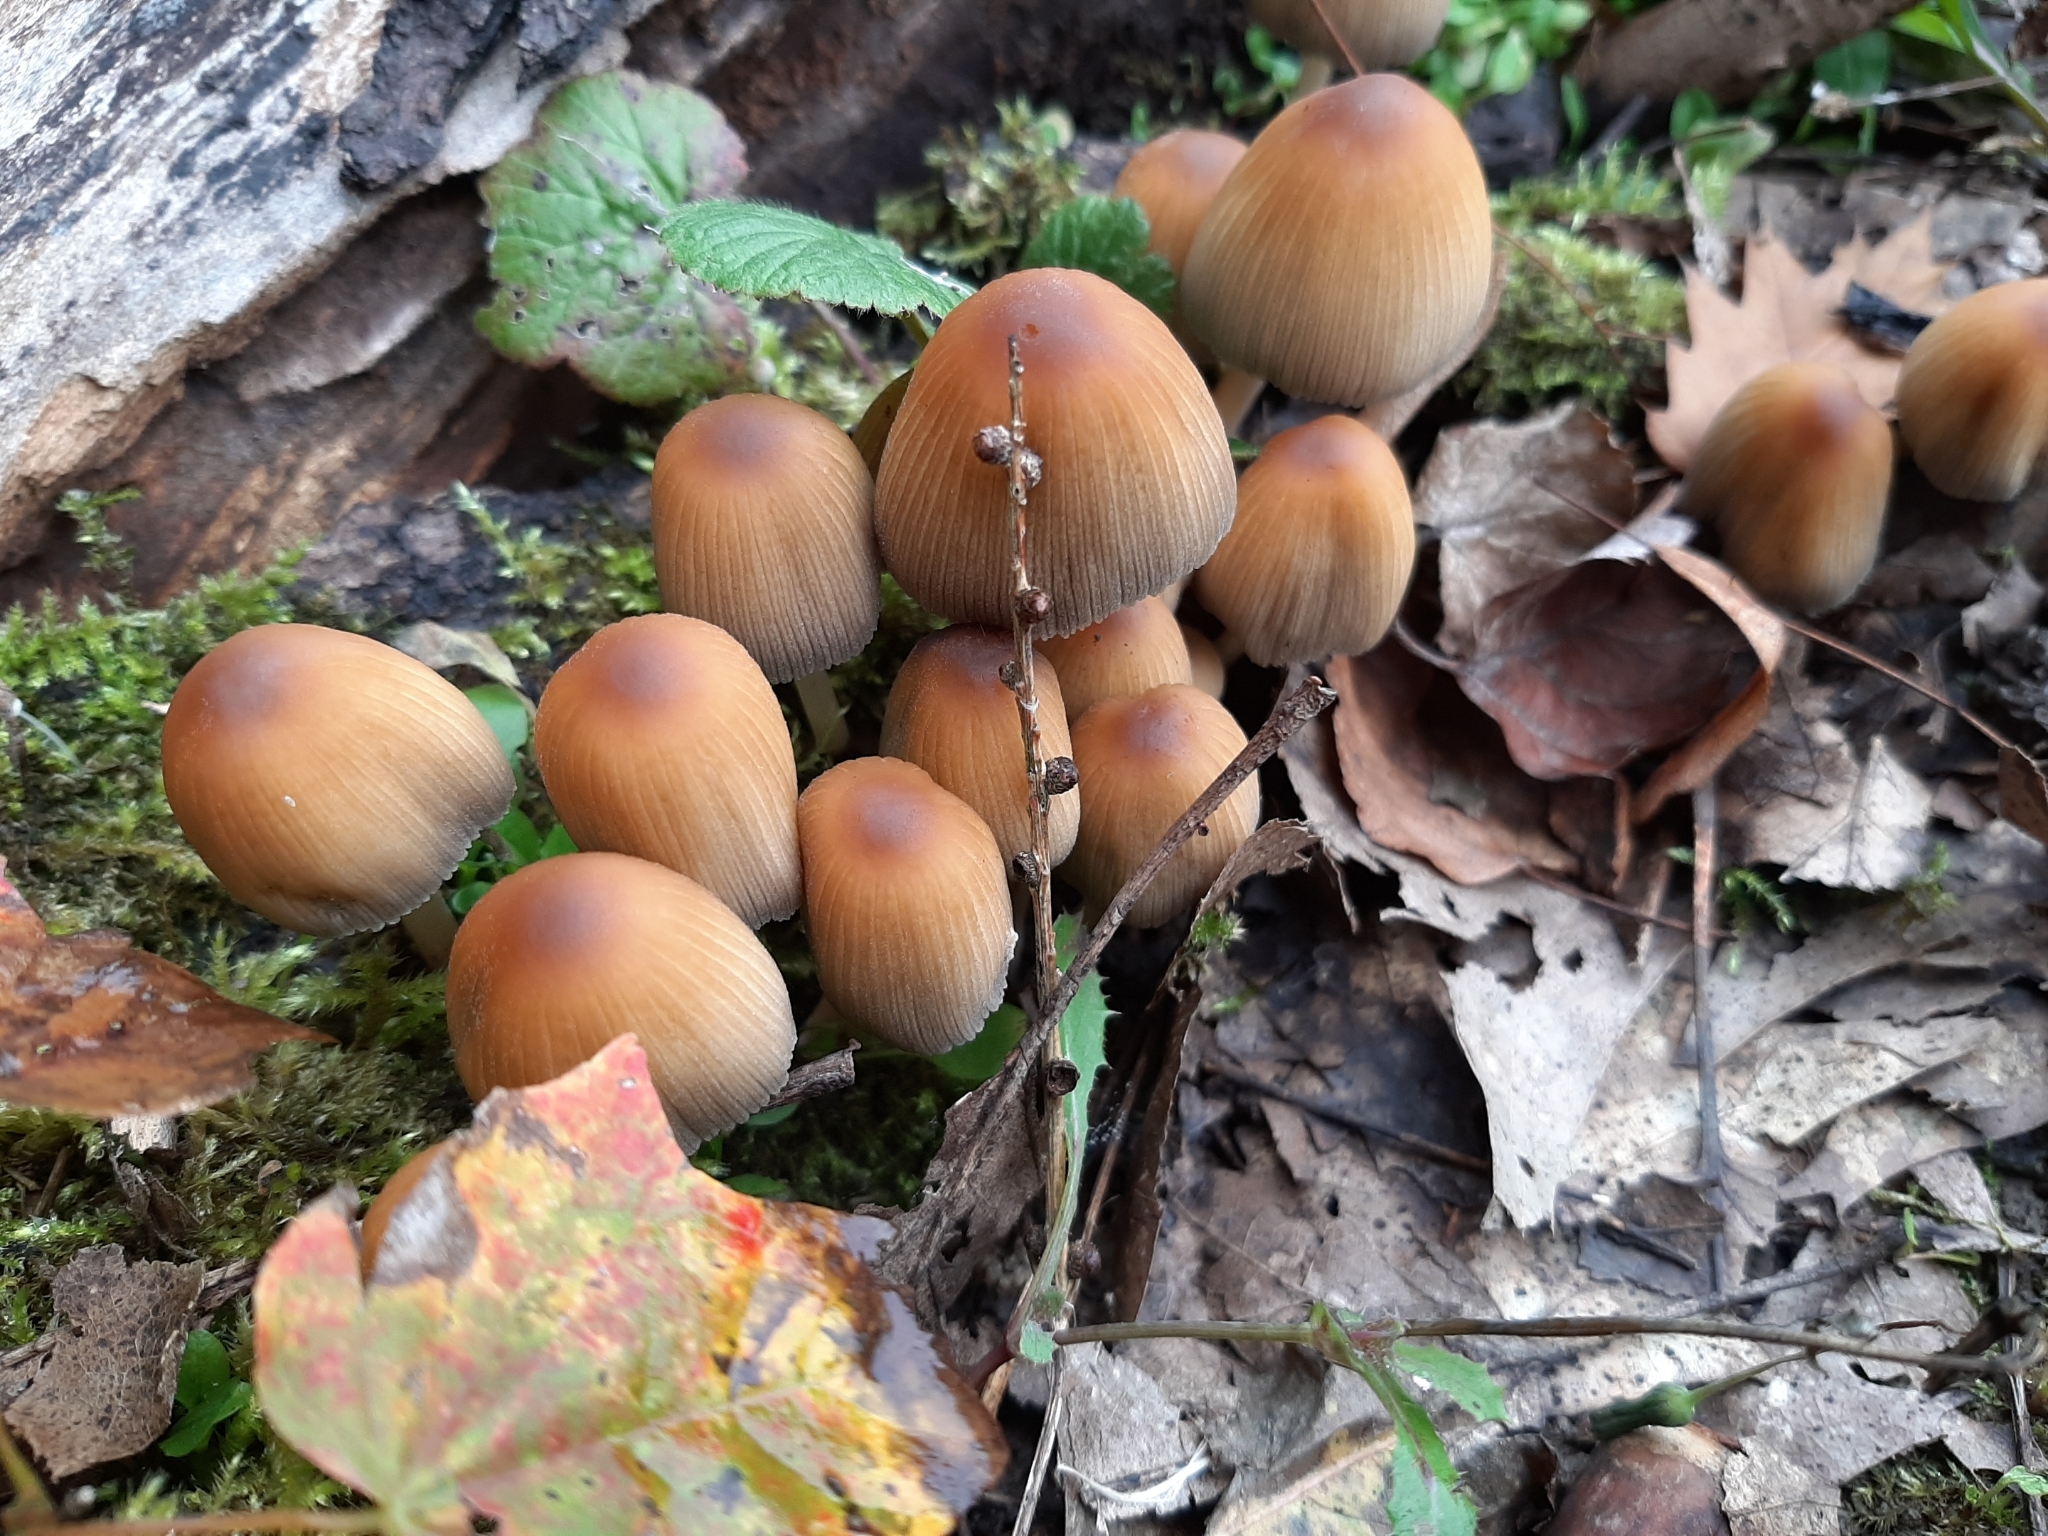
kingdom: Fungi
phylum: Basidiomycota
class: Agaricomycetes
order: Agaricales
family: Psathyrellaceae
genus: Coprinellus
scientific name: Coprinellus micaceus
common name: Glistening ink-cap
